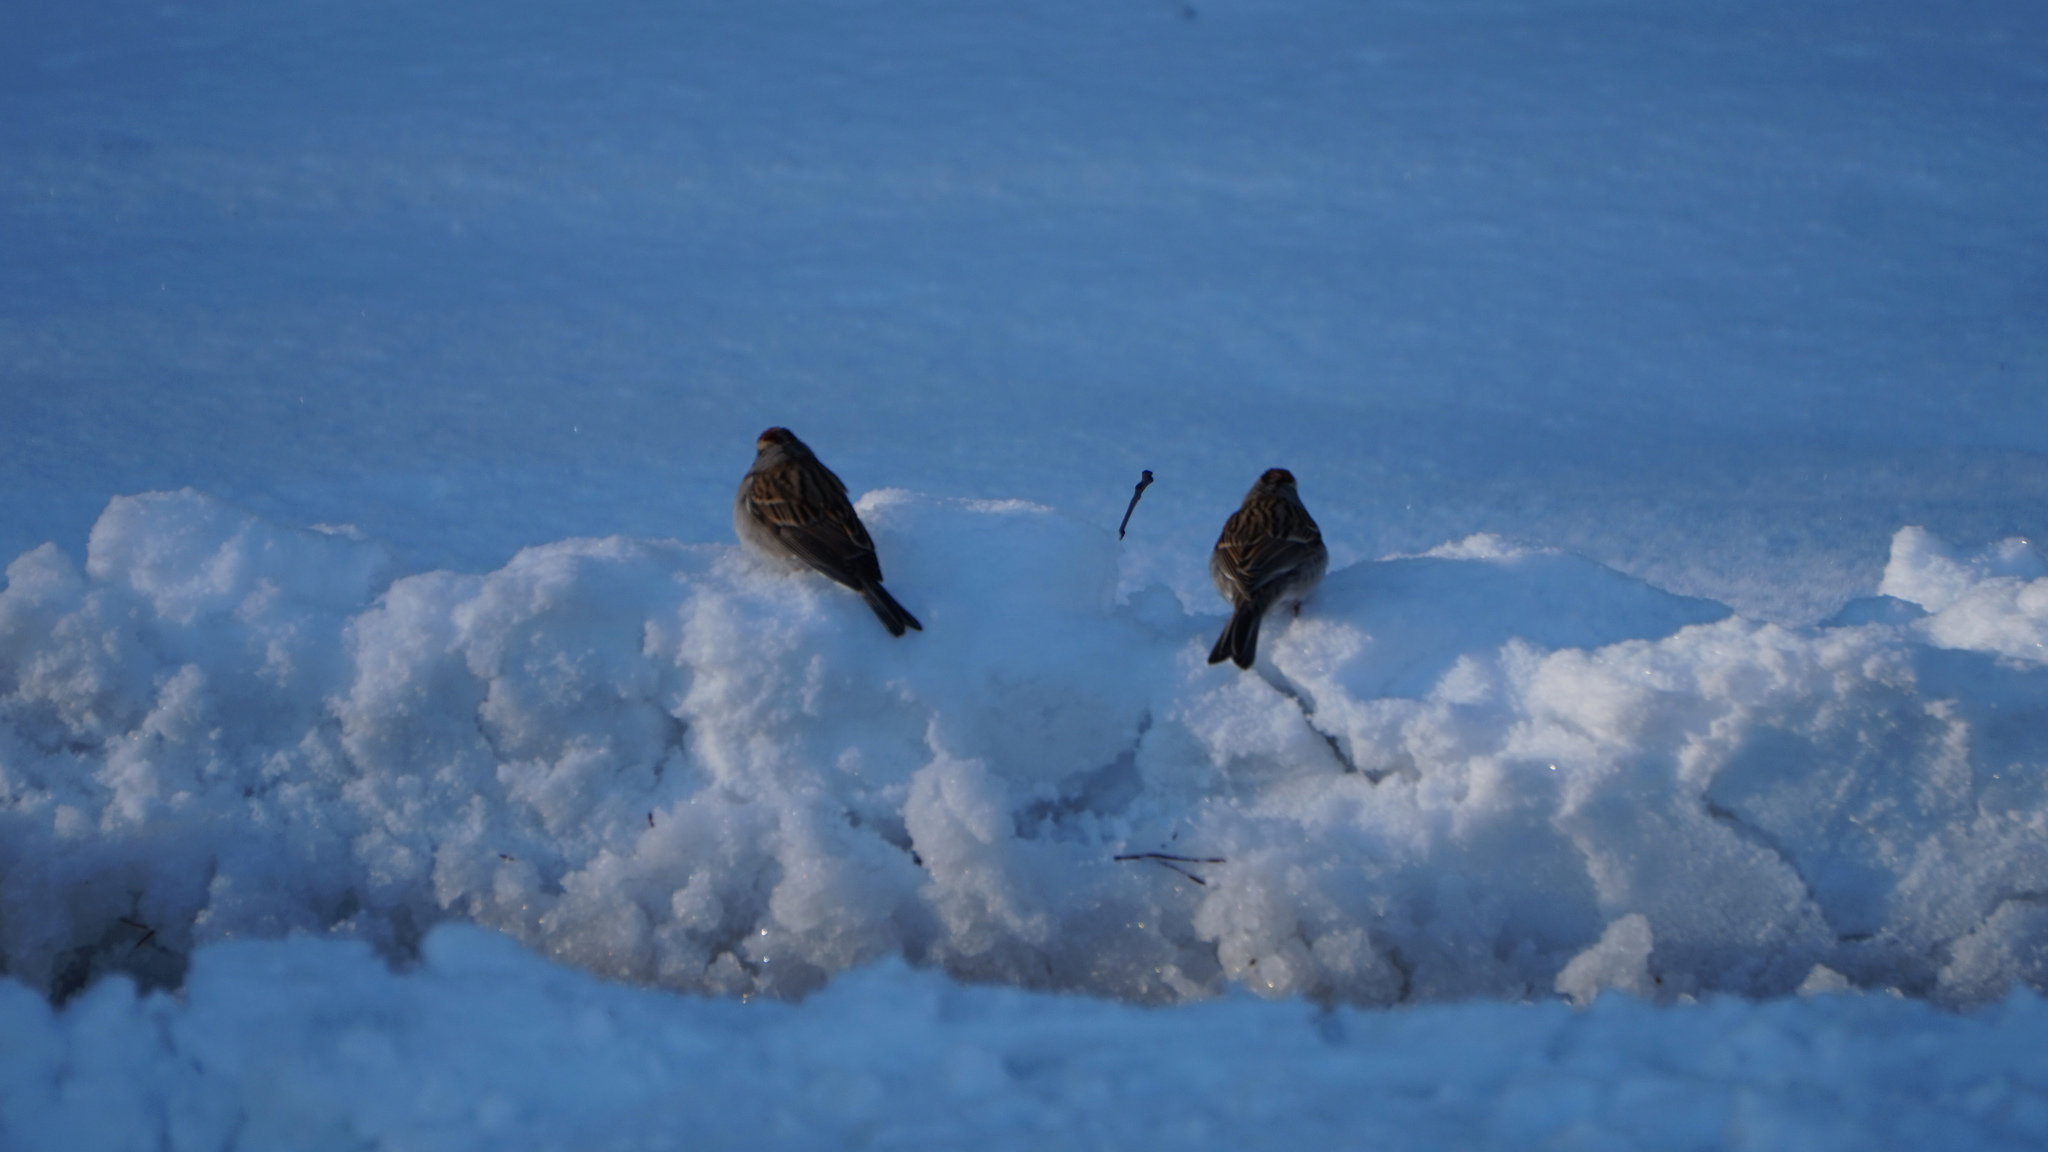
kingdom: Animalia
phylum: Chordata
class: Aves
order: Passeriformes
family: Passerellidae
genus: Spizella
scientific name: Spizella passerina
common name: Chipping sparrow
